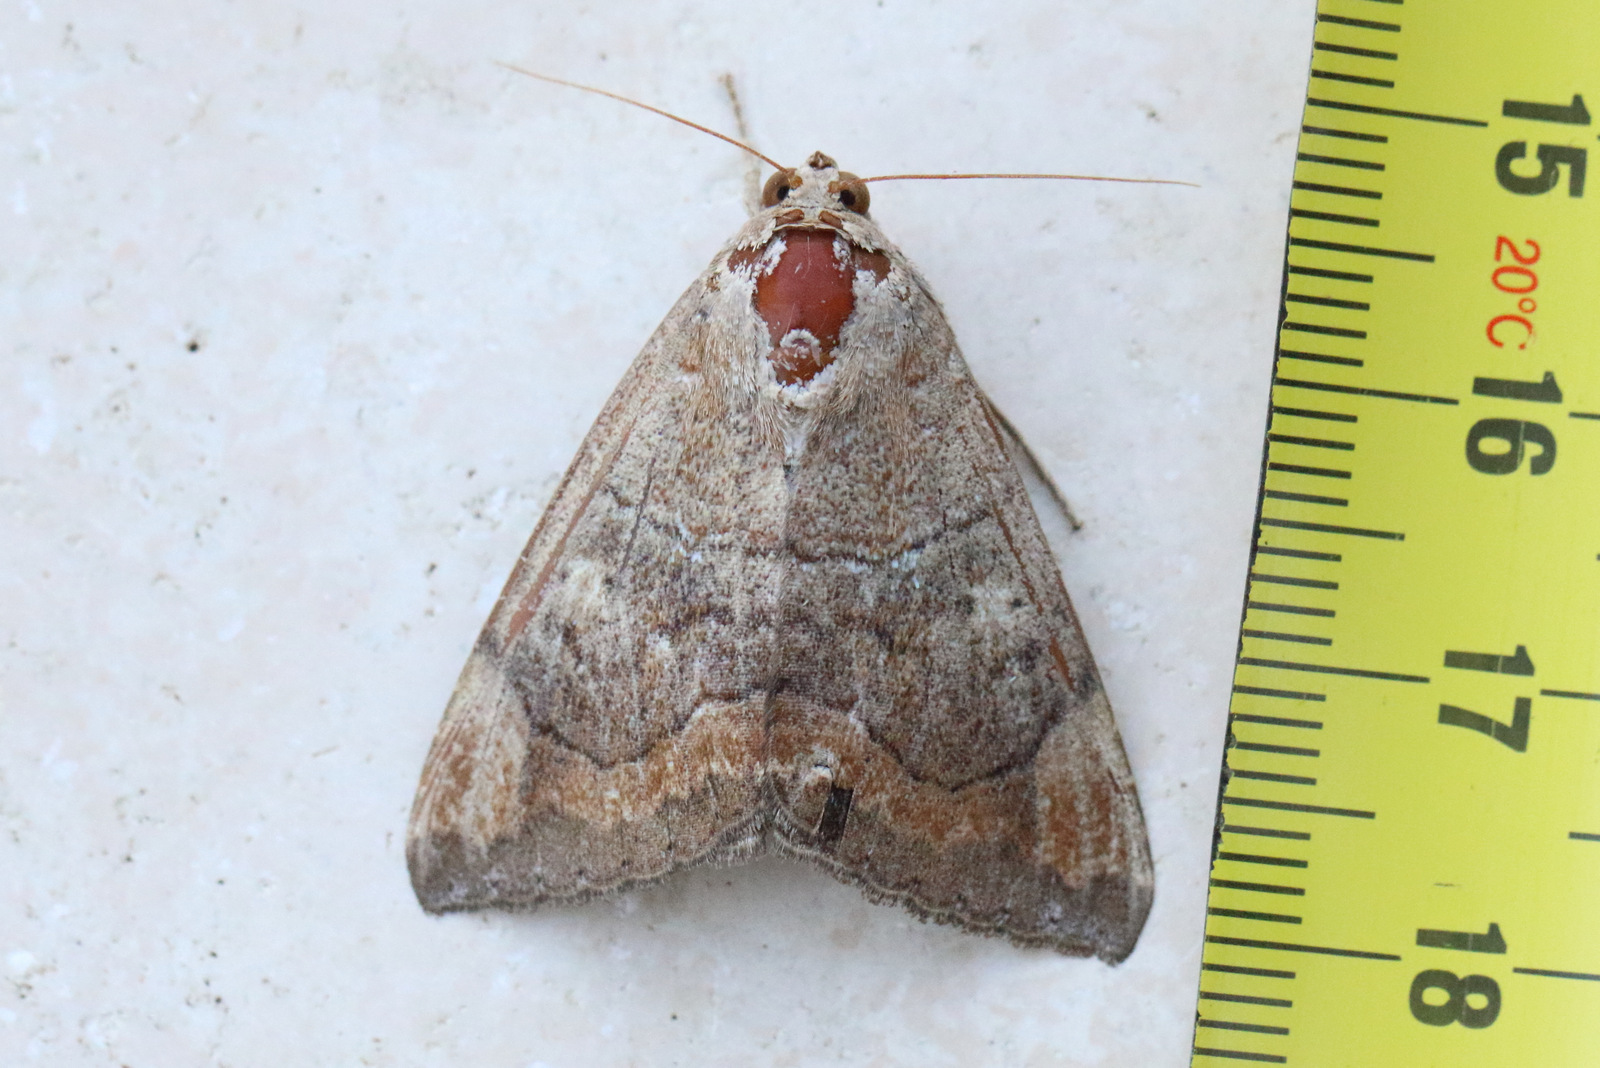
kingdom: Animalia
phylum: Arthropoda
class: Insecta
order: Lepidoptera
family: Erebidae
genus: Achaea
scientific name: Achaea janata
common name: Croton caterpillar
